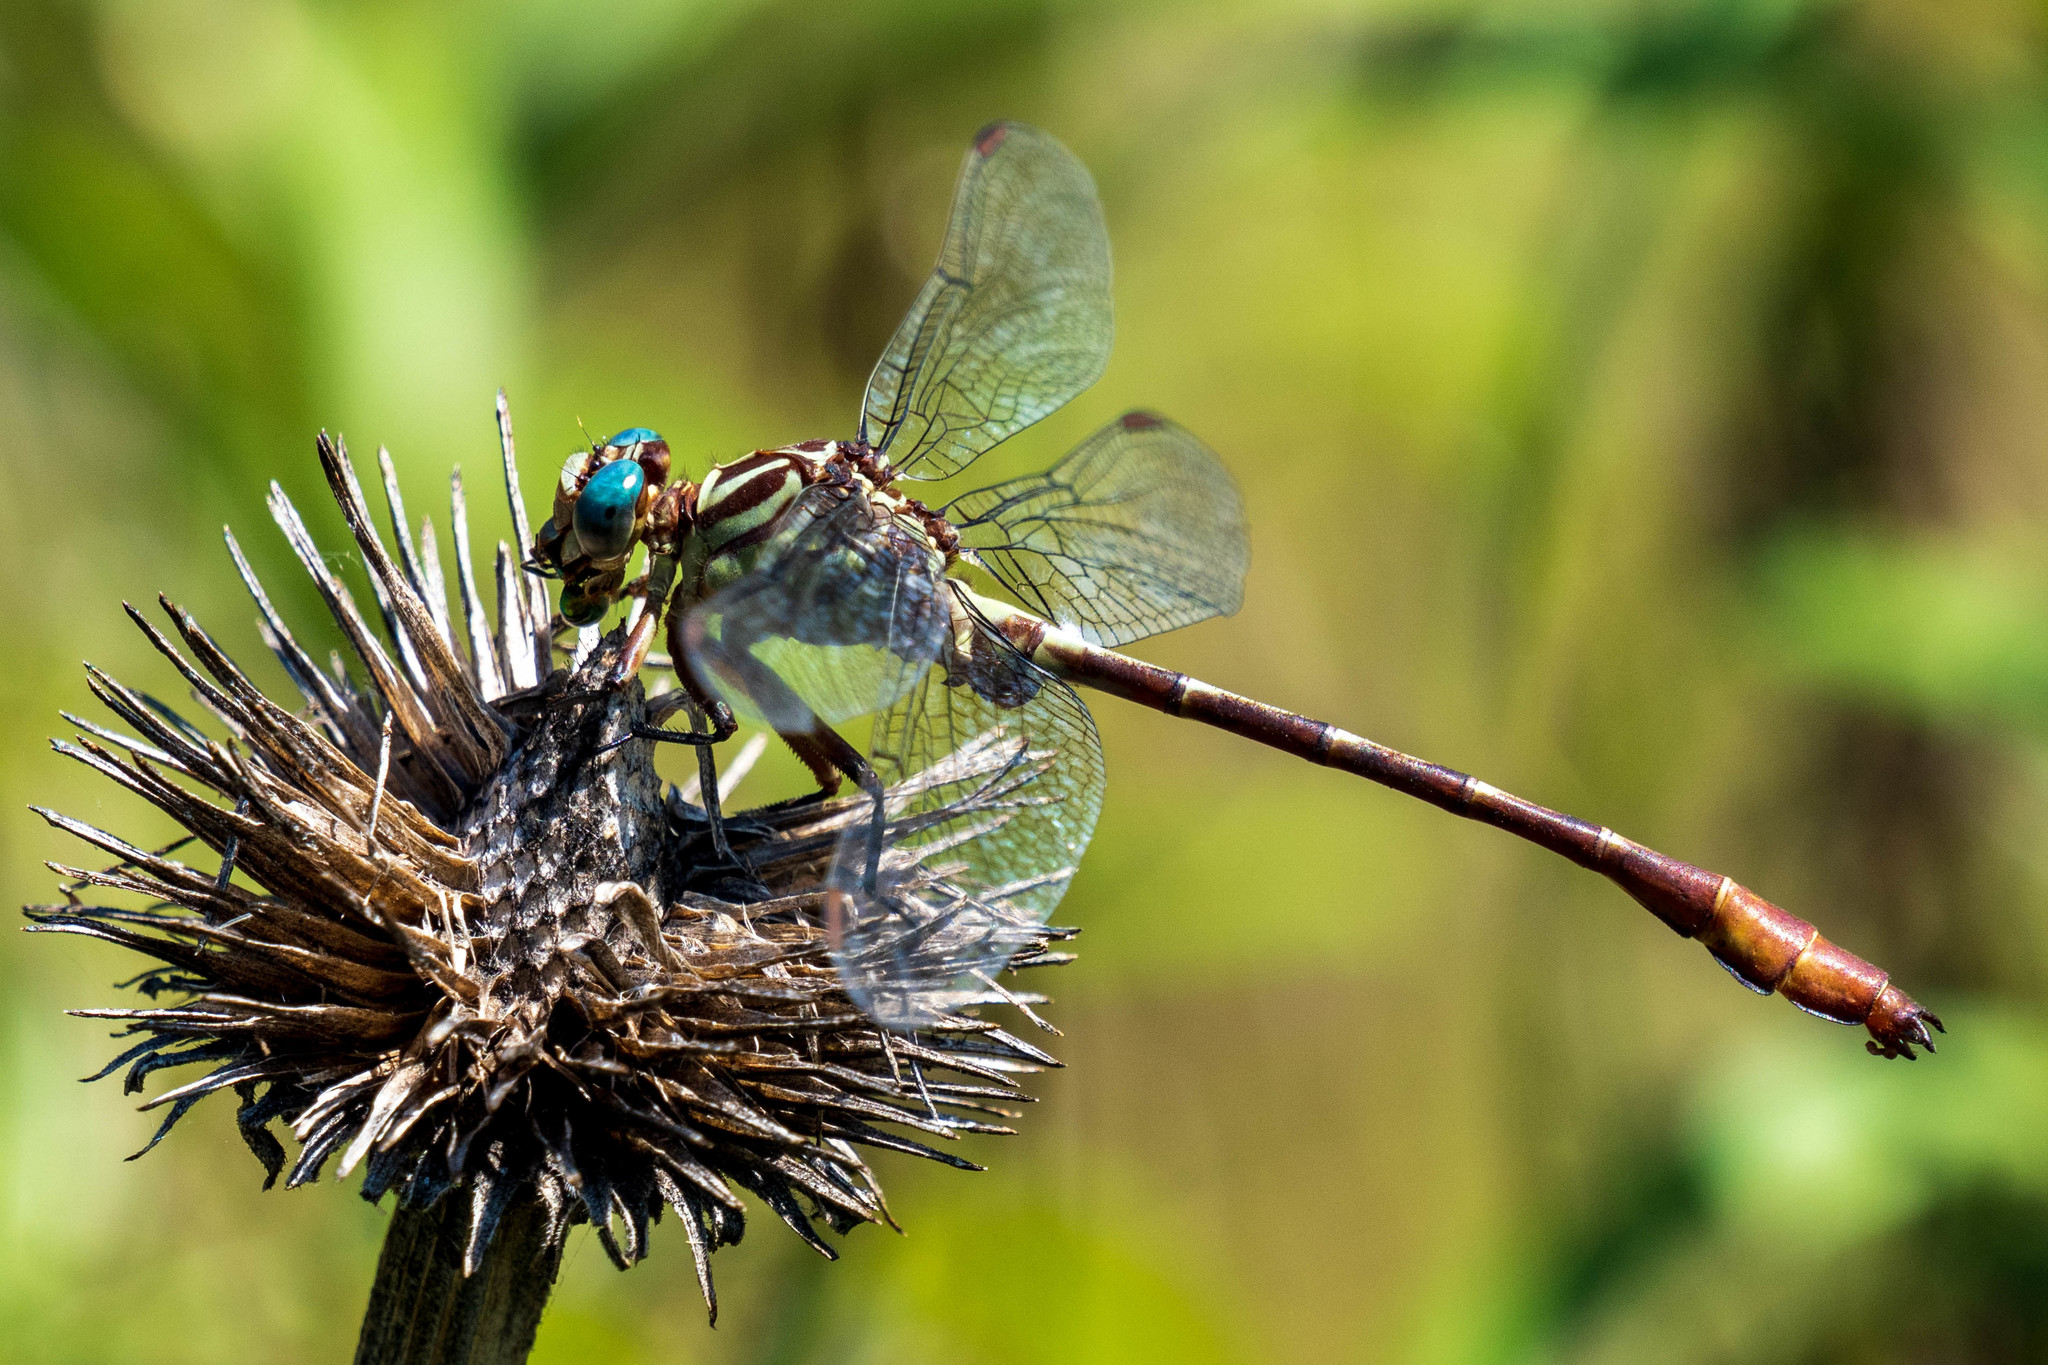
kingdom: Animalia
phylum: Arthropoda
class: Insecta
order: Odonata
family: Gomphidae
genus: Stylurus
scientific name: Stylurus plagiatus
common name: Russet-tipped clubtail
